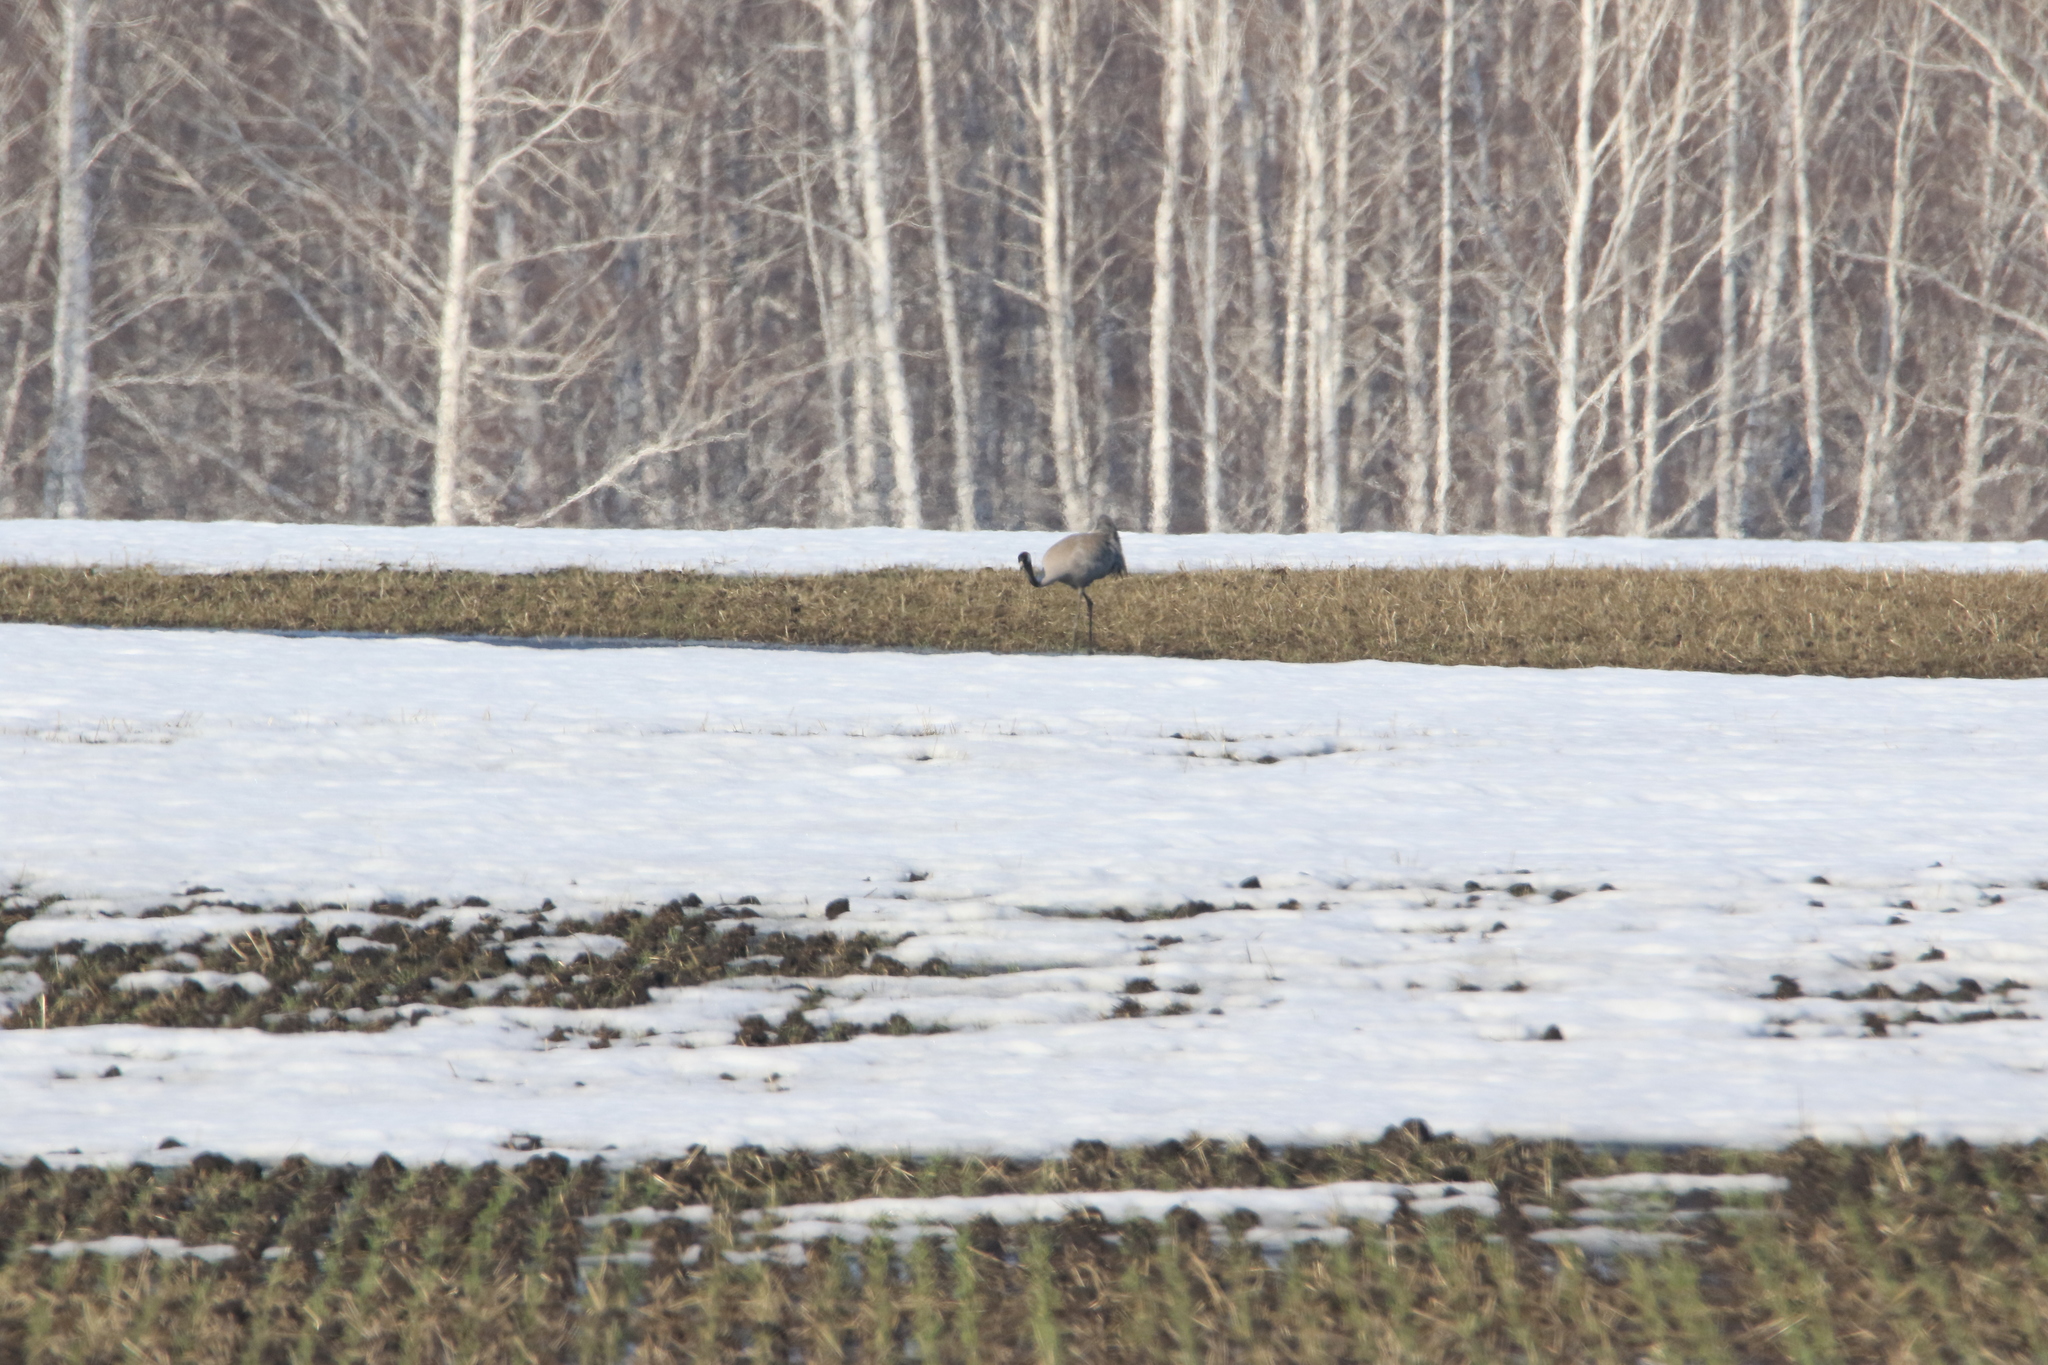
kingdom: Animalia
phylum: Chordata
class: Aves
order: Gruiformes
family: Gruidae
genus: Grus
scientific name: Grus grus
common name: Common crane
